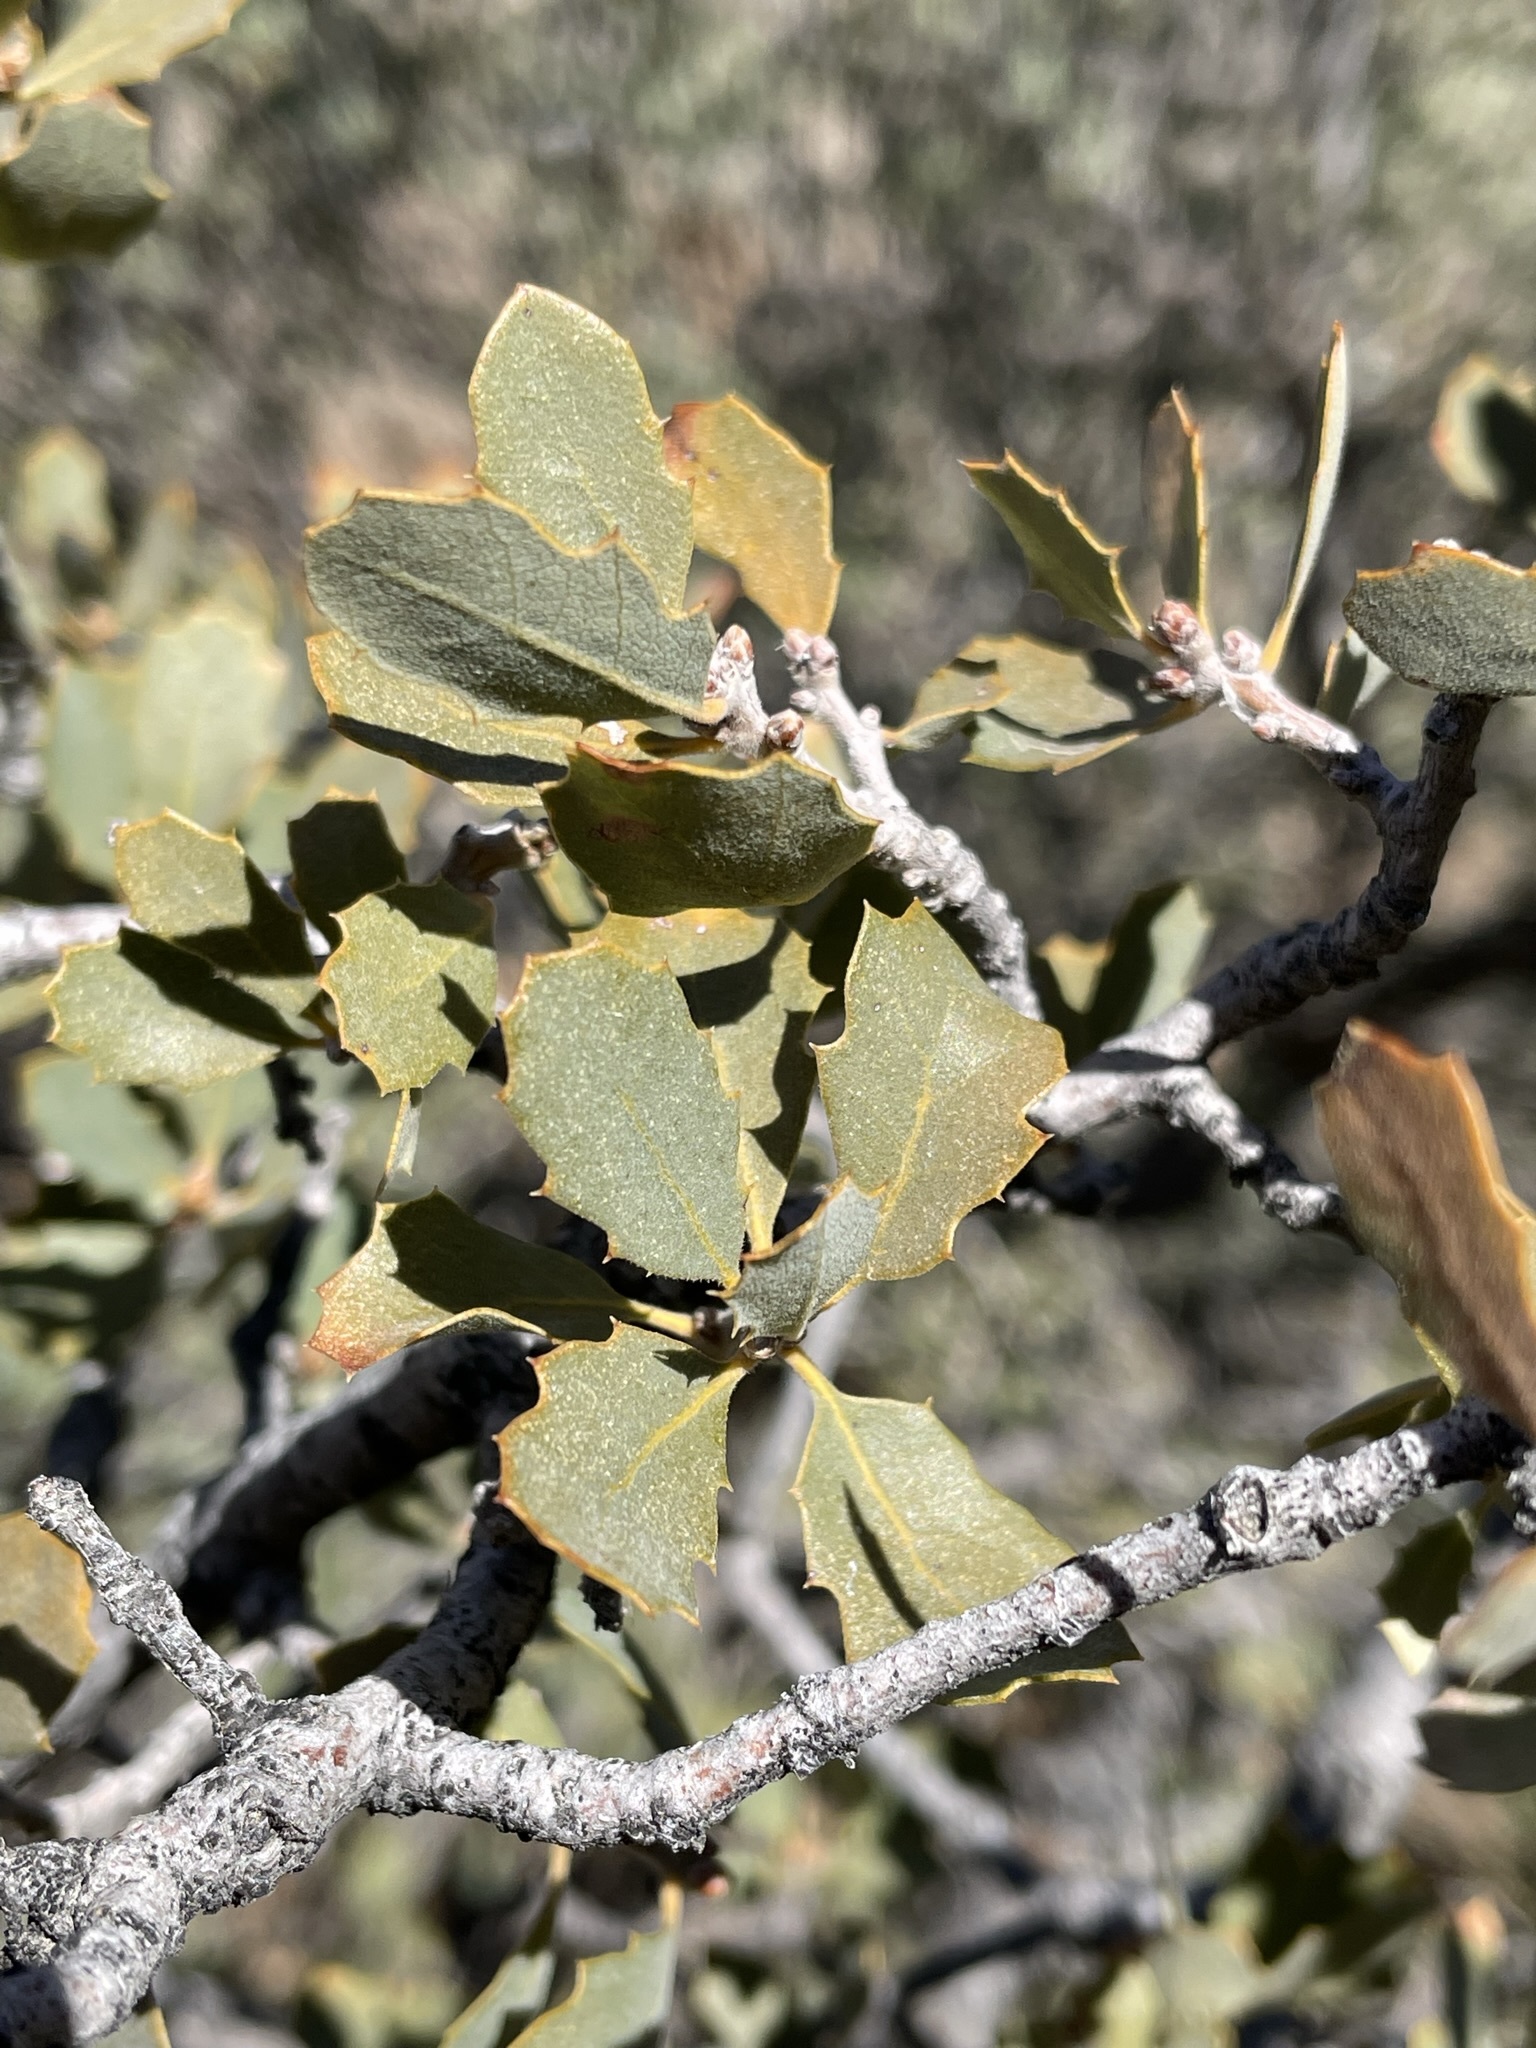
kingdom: Plantae
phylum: Tracheophyta
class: Magnoliopsida
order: Fagales
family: Fagaceae
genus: Quercus
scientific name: Quercus john-tuckeri
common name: Tucker's oak
